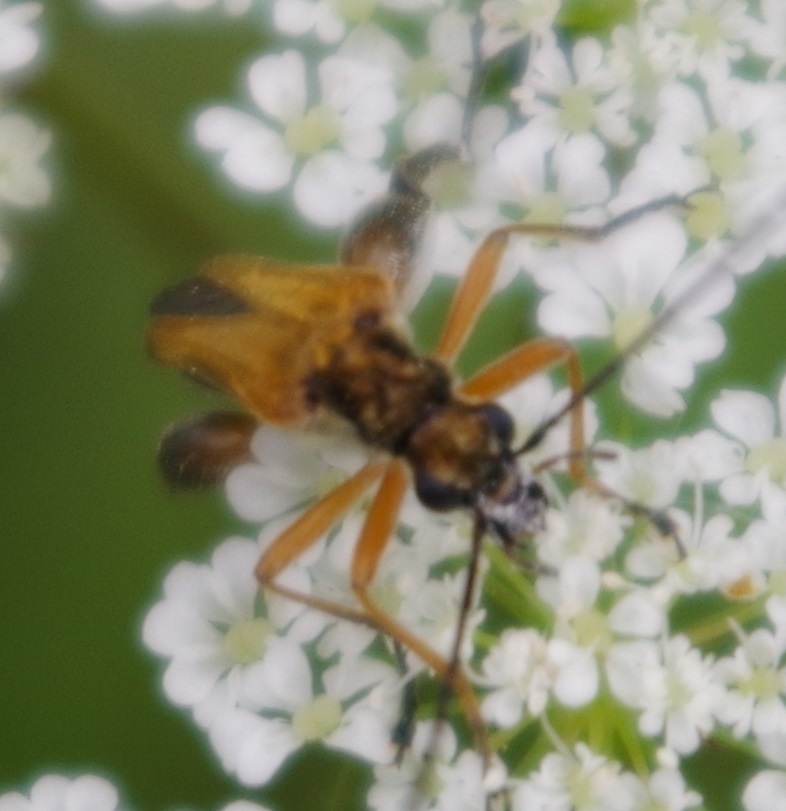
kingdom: Animalia
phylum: Arthropoda
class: Insecta
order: Coleoptera
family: Oedemeridae
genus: Oedemera
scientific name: Oedemera podagrariae
